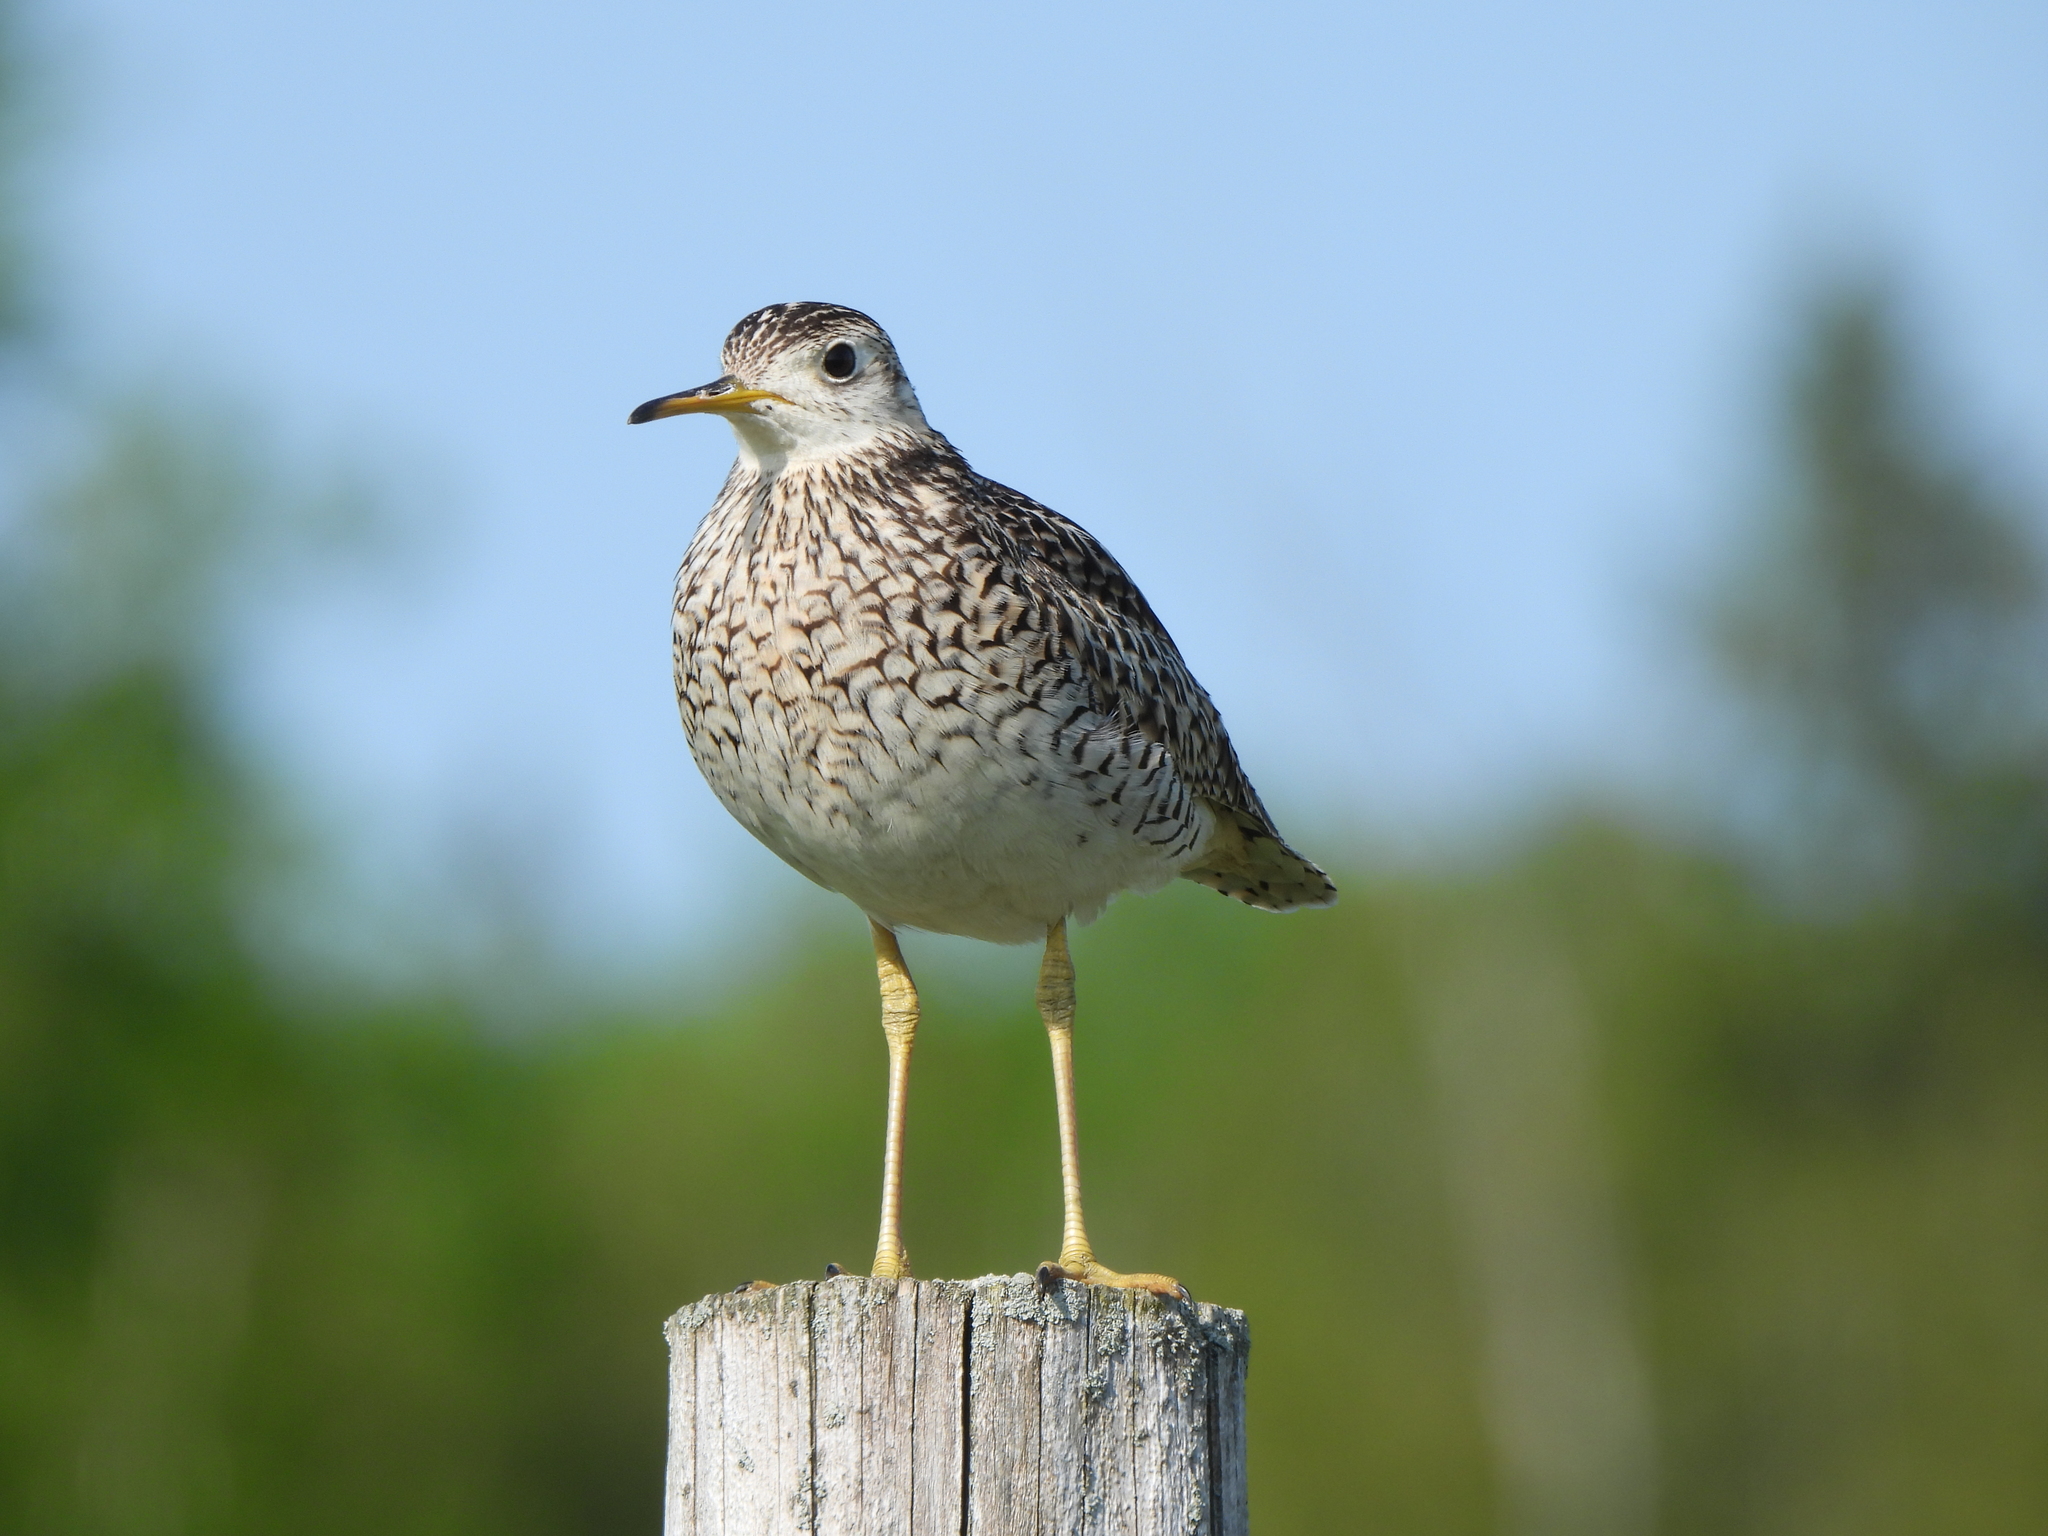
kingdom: Animalia
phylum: Chordata
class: Aves
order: Charadriiformes
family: Scolopacidae
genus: Bartramia
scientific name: Bartramia longicauda
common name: Upland sandpiper
